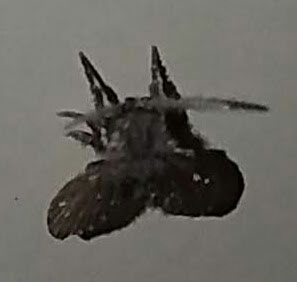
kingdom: Animalia
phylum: Arthropoda
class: Insecta
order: Diptera
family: Psychodidae
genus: Clogmia
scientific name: Clogmia albipunctatus
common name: White-spotted moth fly
